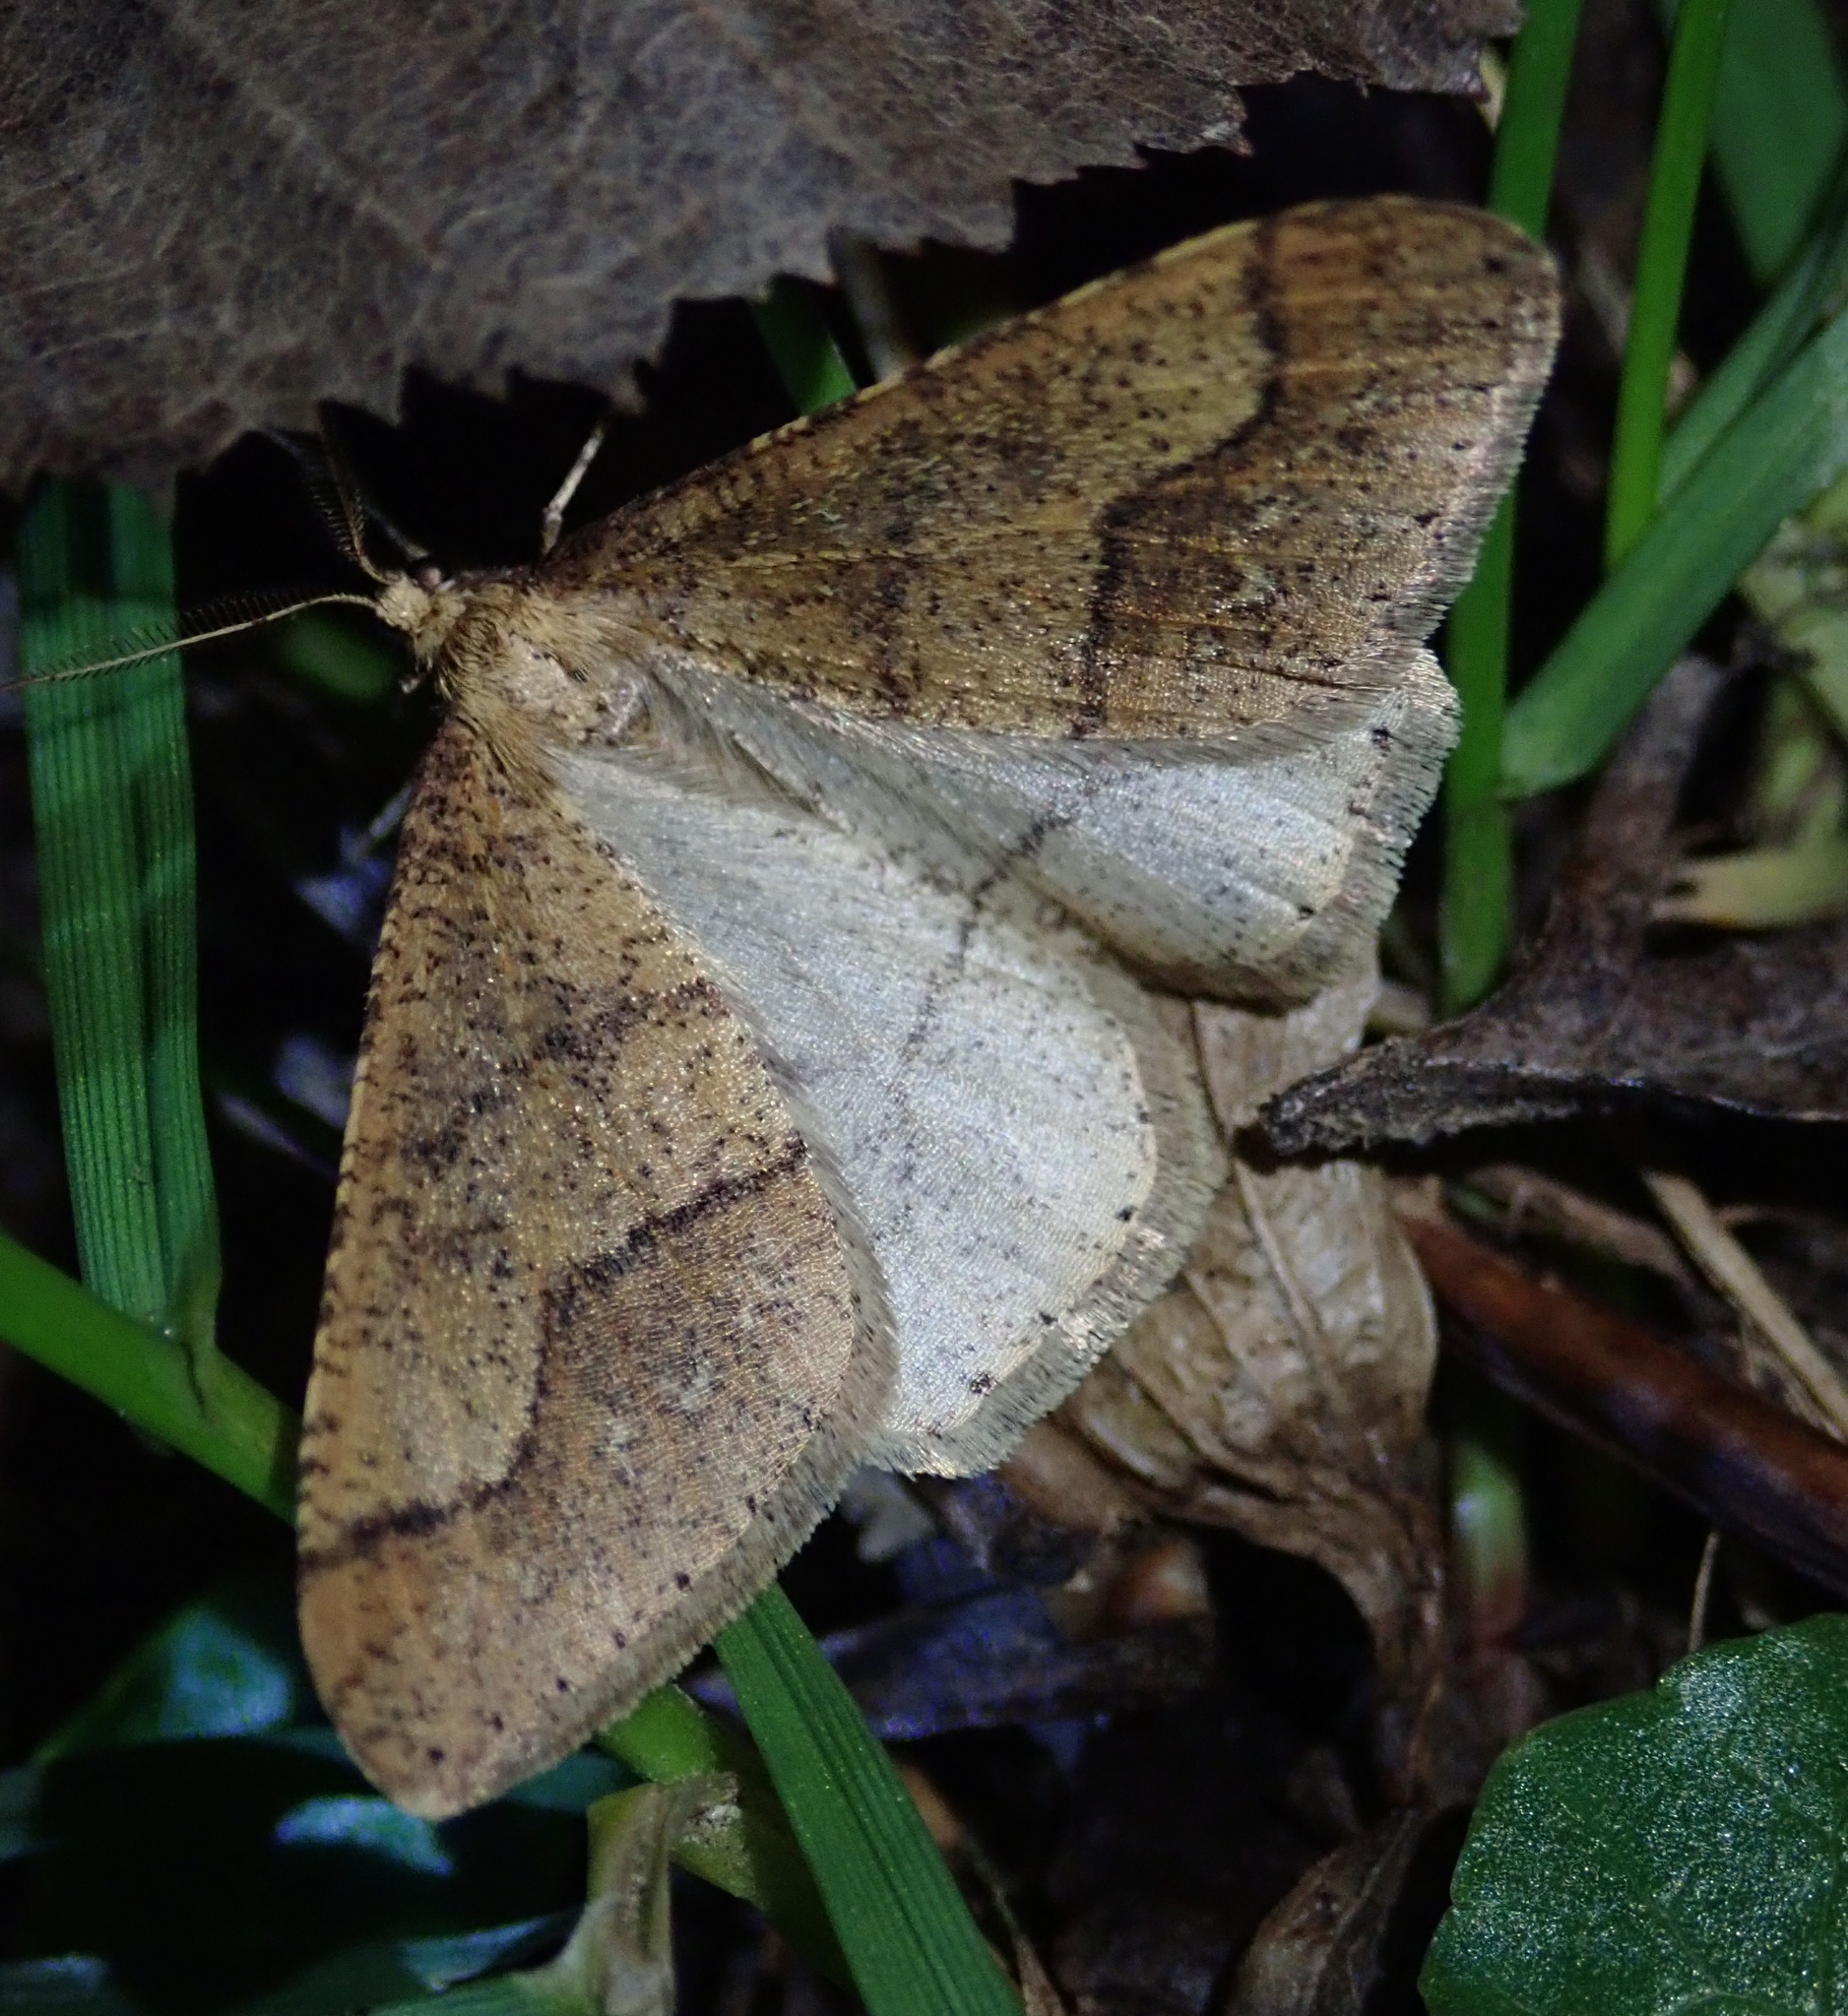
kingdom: Animalia
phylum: Arthropoda
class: Insecta
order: Lepidoptera
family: Geometridae
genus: Agriopis
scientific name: Agriopis marginaria
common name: Dotted border
